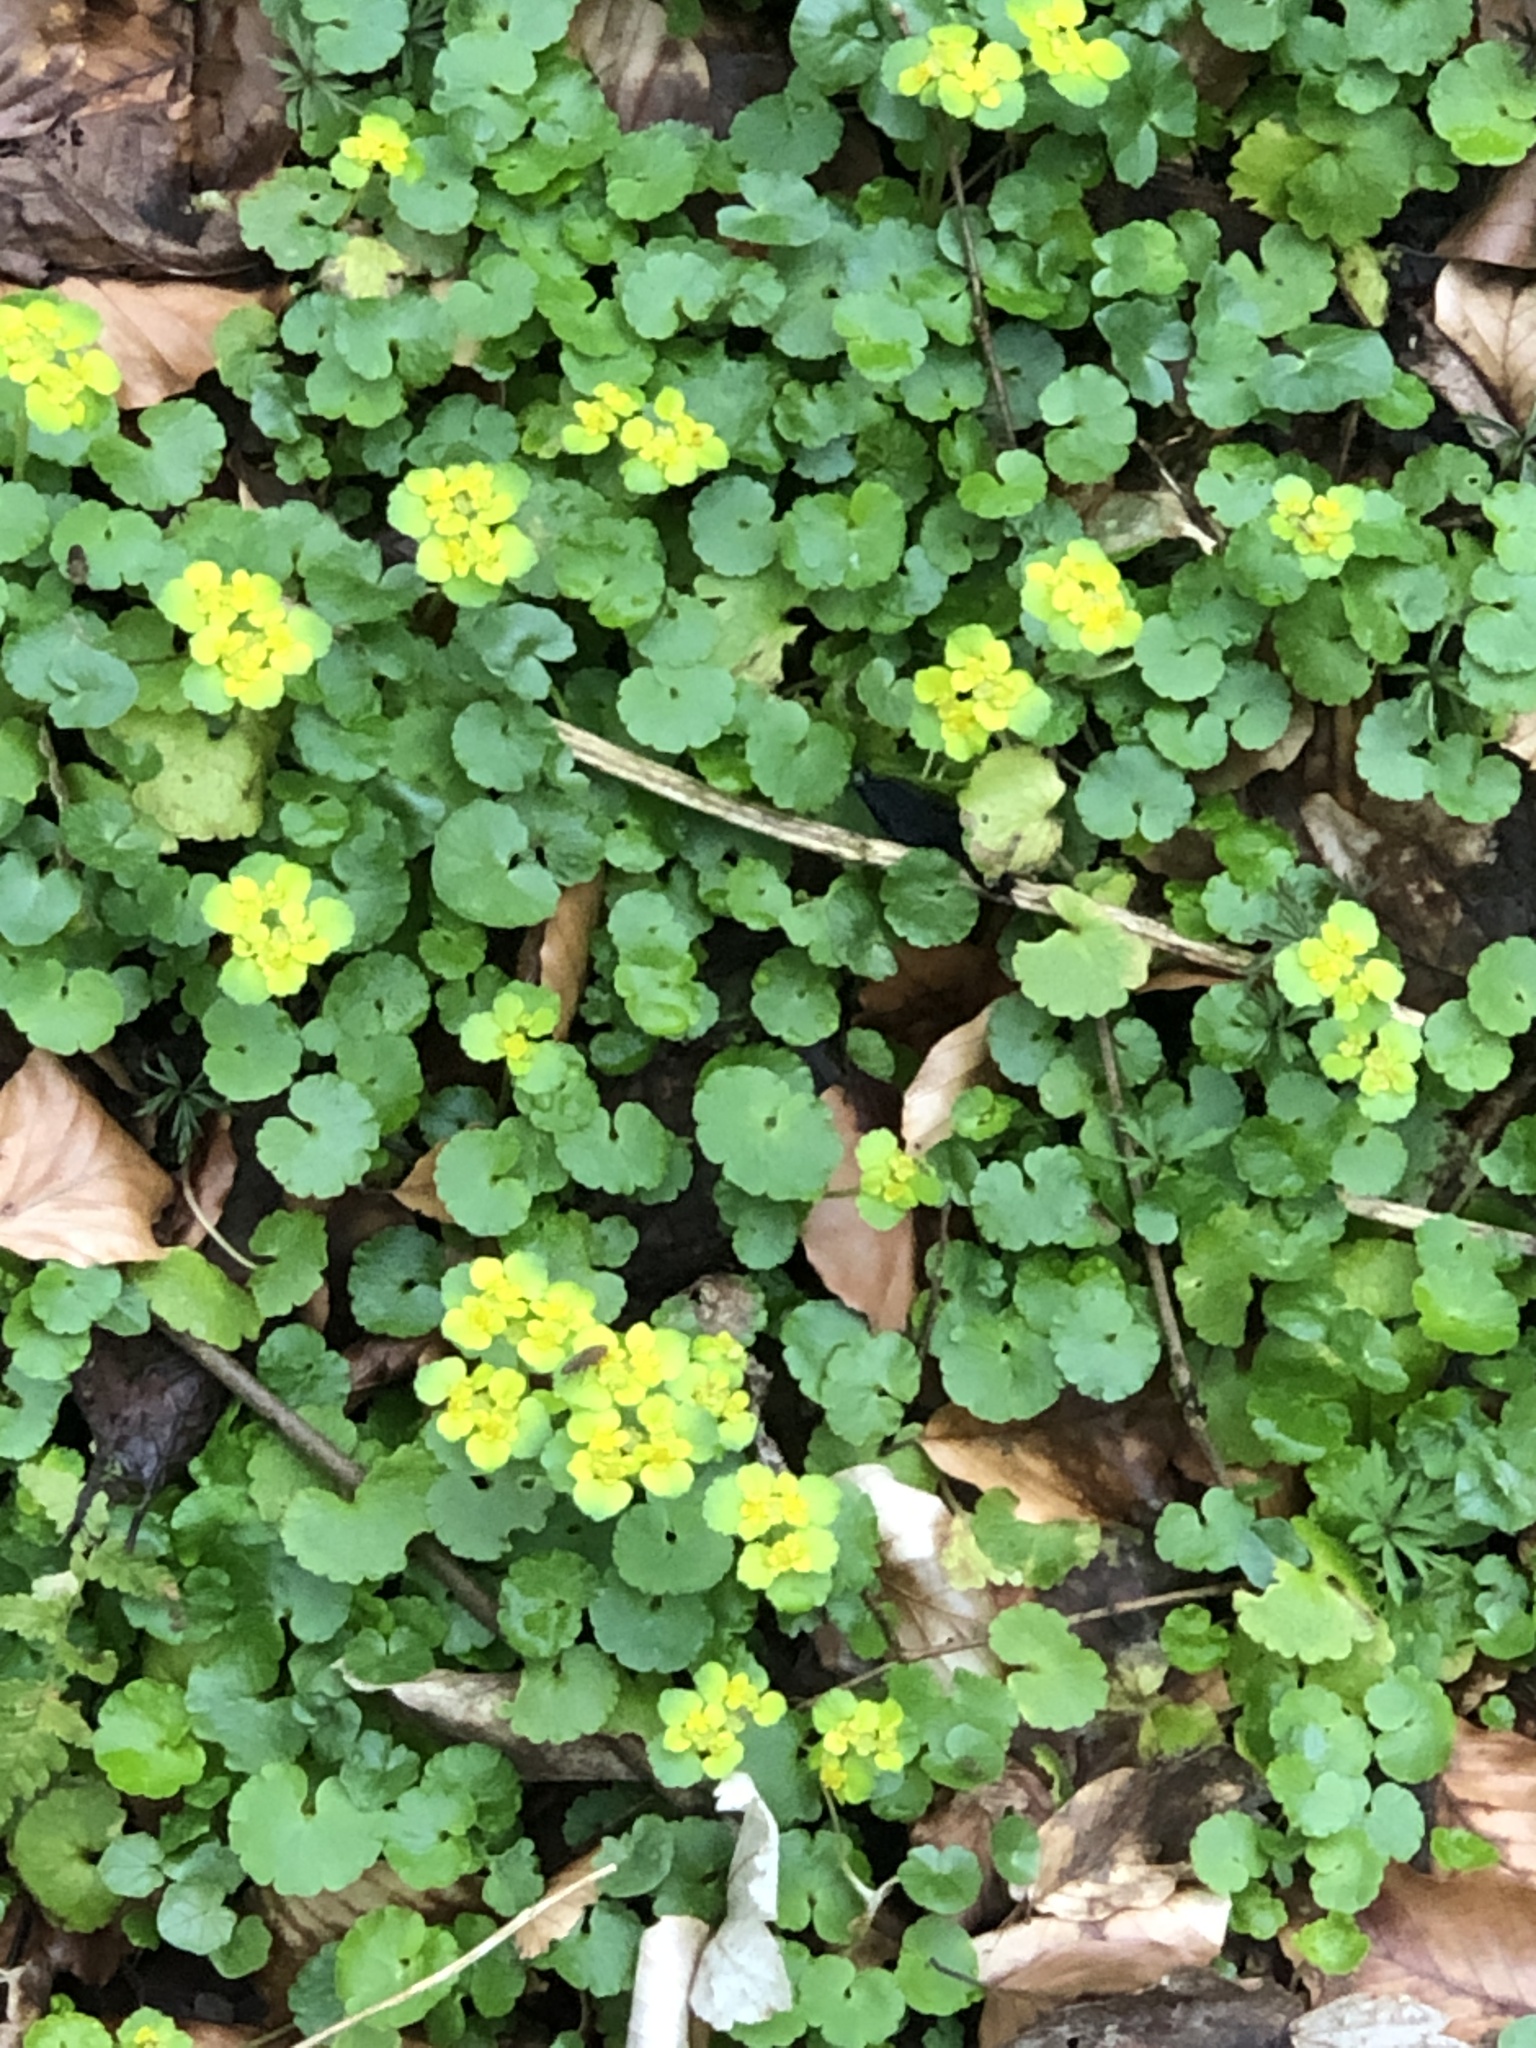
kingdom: Plantae
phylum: Tracheophyta
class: Magnoliopsida
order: Saxifragales
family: Saxifragaceae
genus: Chrysosplenium
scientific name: Chrysosplenium alternifolium
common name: Alternate-leaved golden-saxifrage
